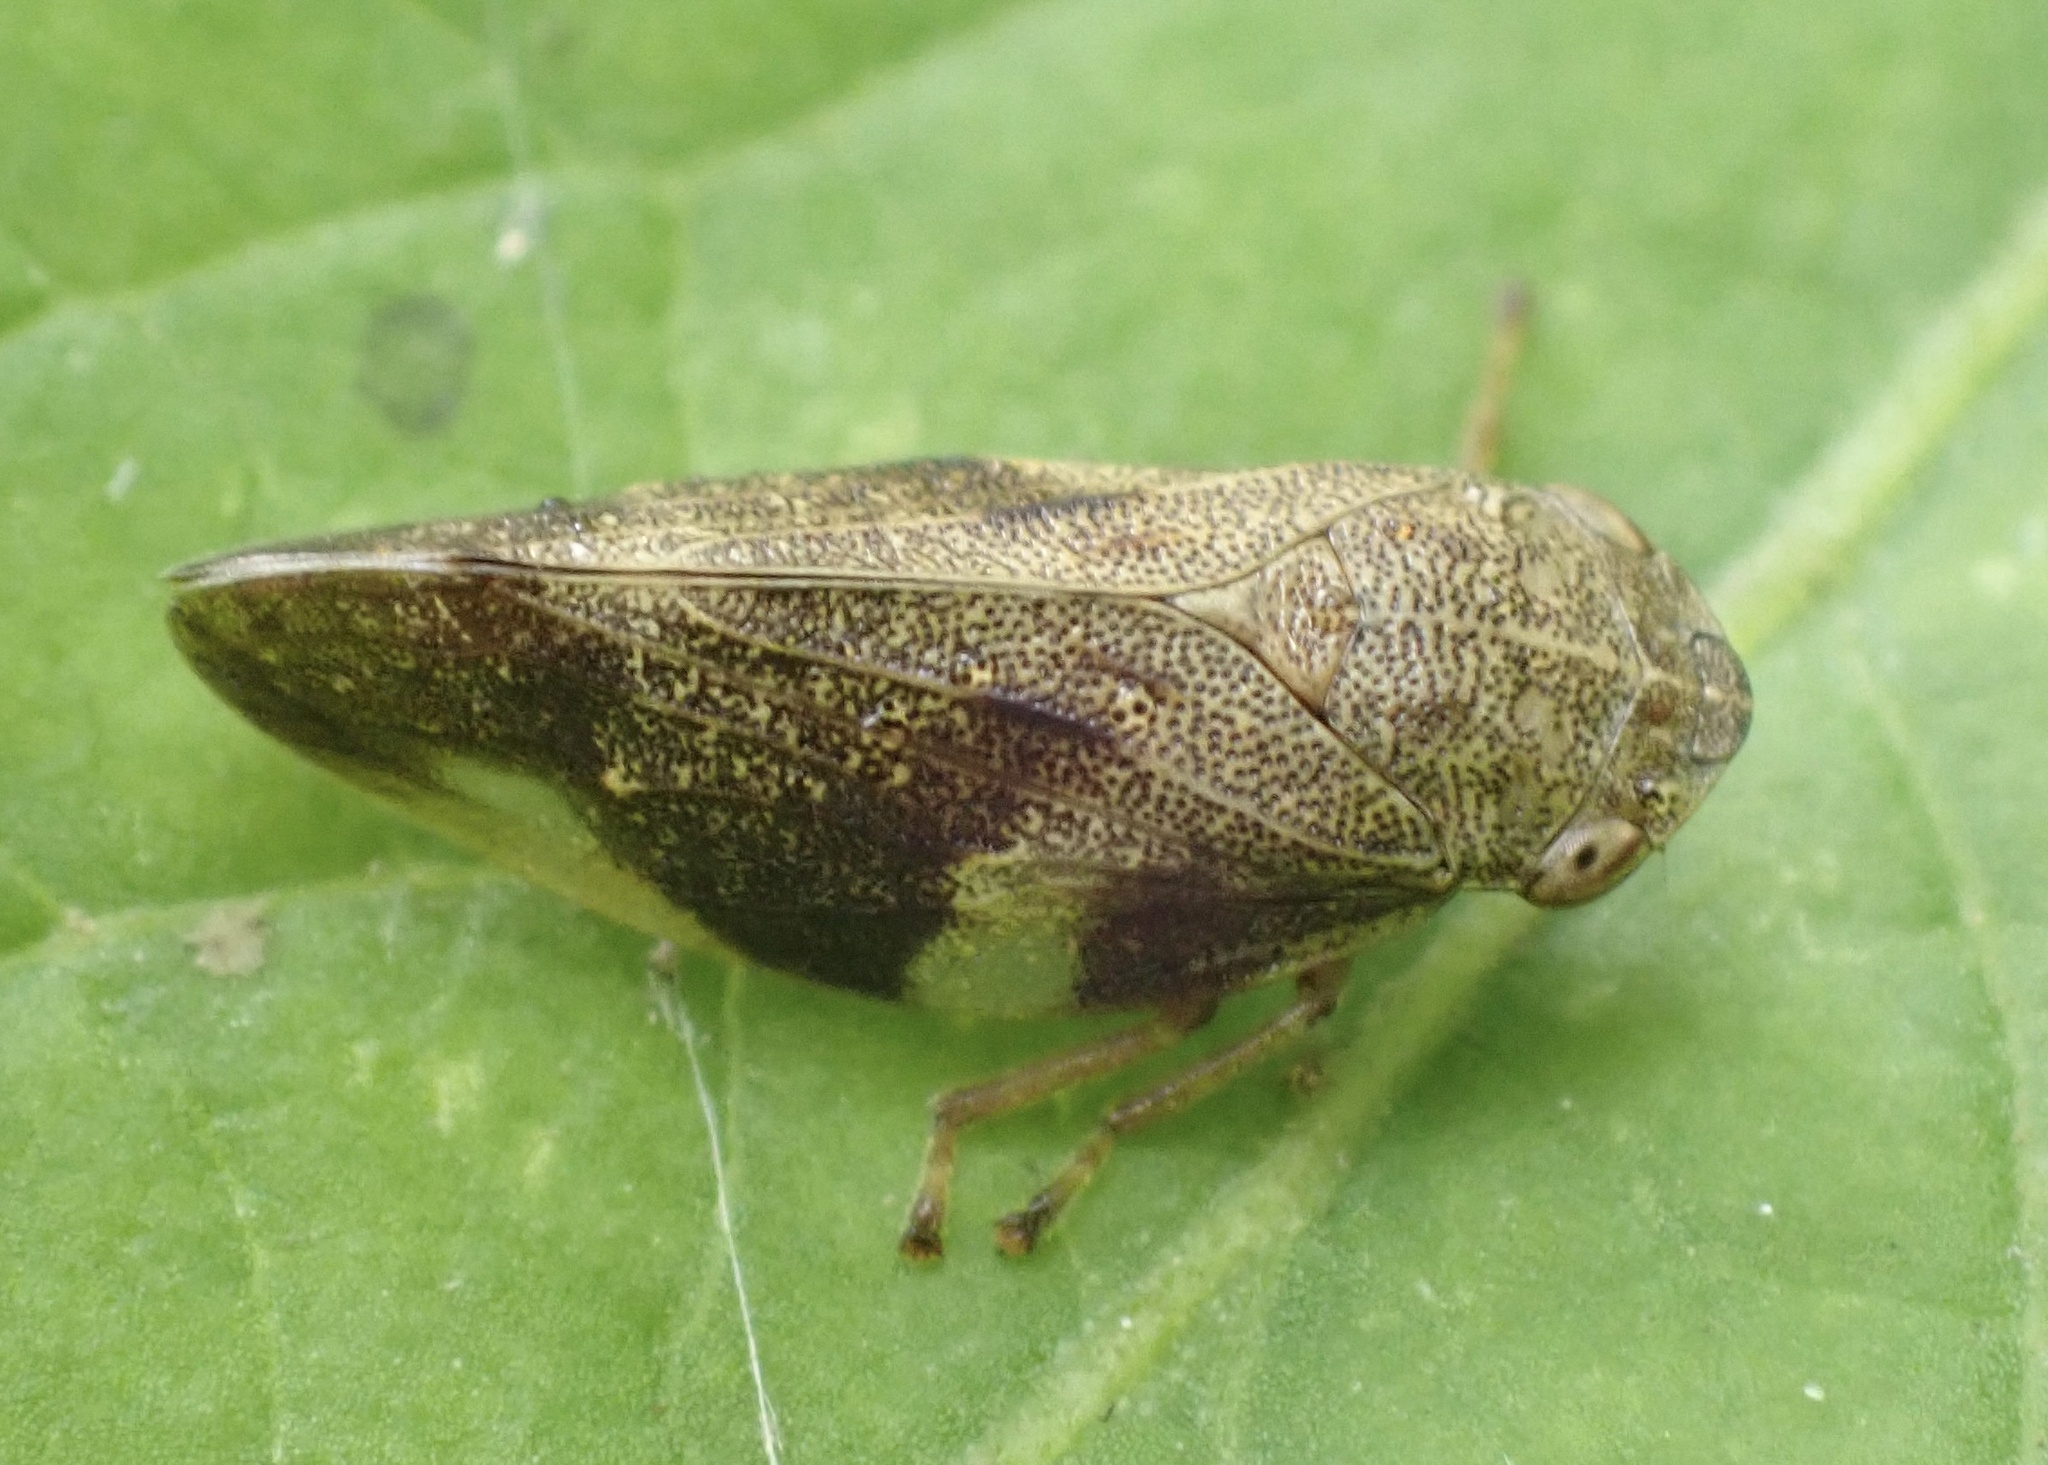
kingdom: Animalia
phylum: Arthropoda
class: Insecta
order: Hemiptera
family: Aphrophoridae
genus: Aphrophora
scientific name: Aphrophora alni
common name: European alder spittlebug
